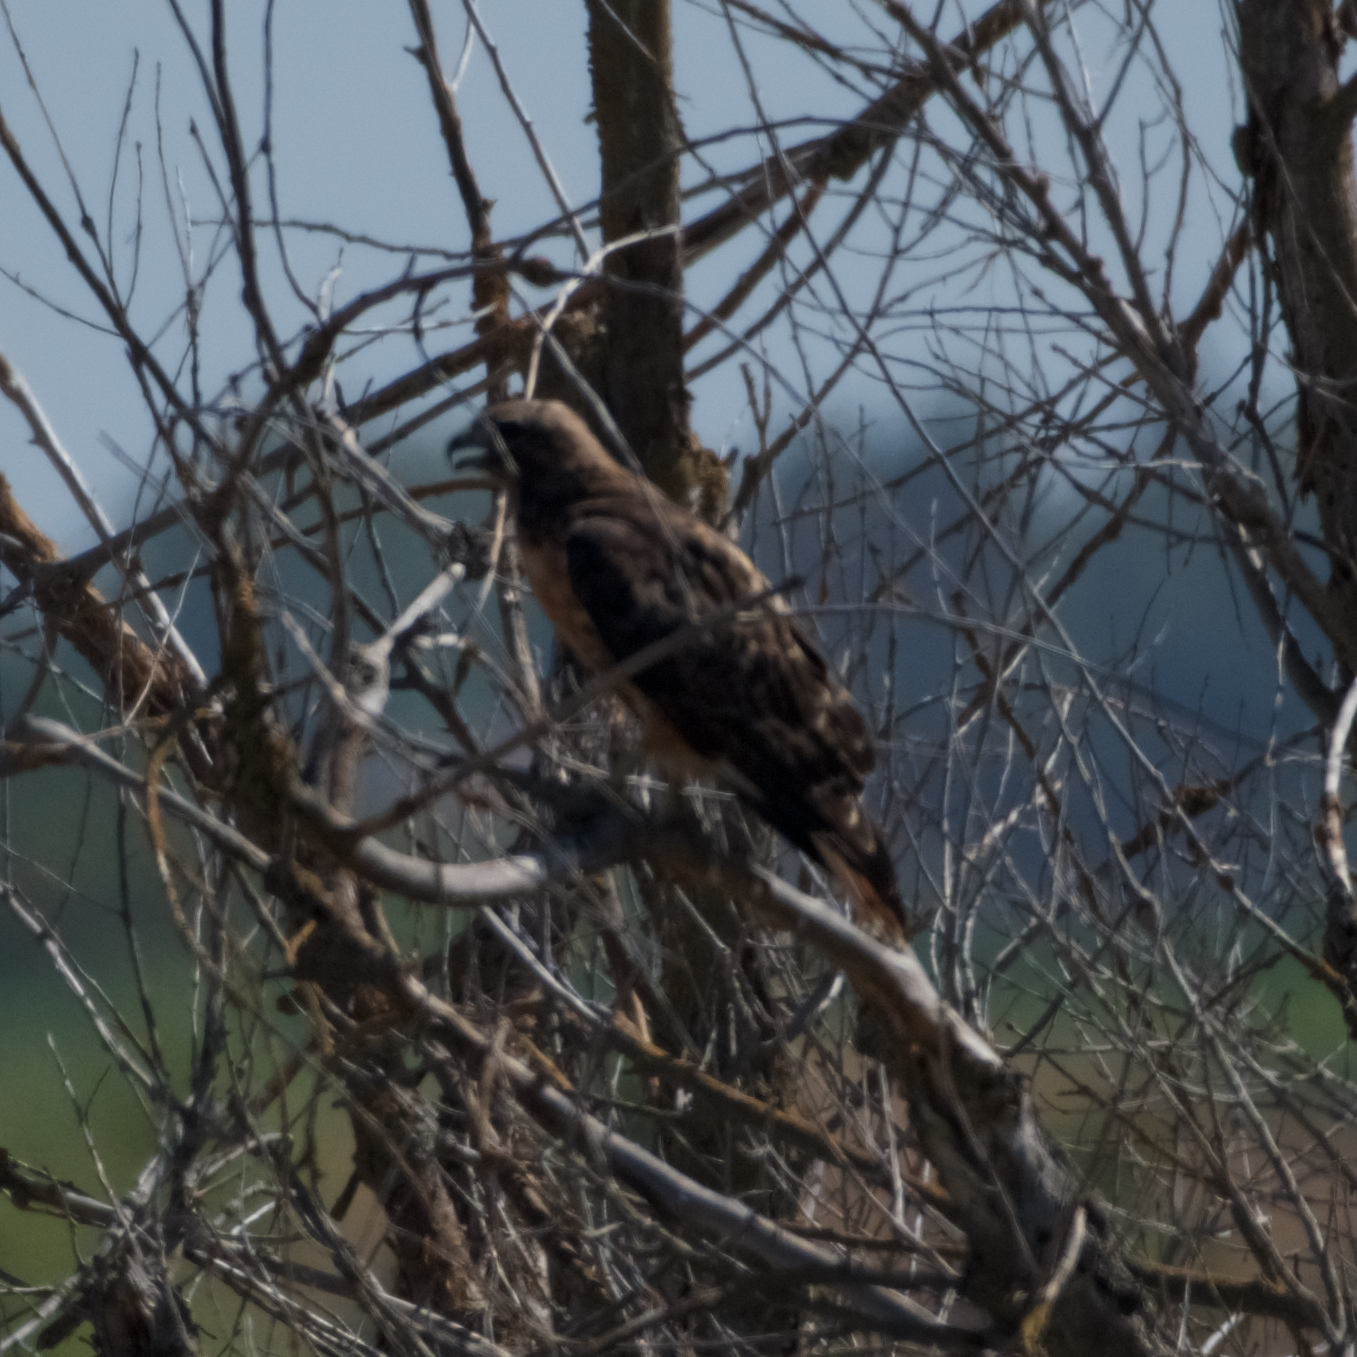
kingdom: Animalia
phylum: Chordata
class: Aves
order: Accipitriformes
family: Accipitridae
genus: Buteo
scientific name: Buteo jamaicensis
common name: Red-tailed hawk
